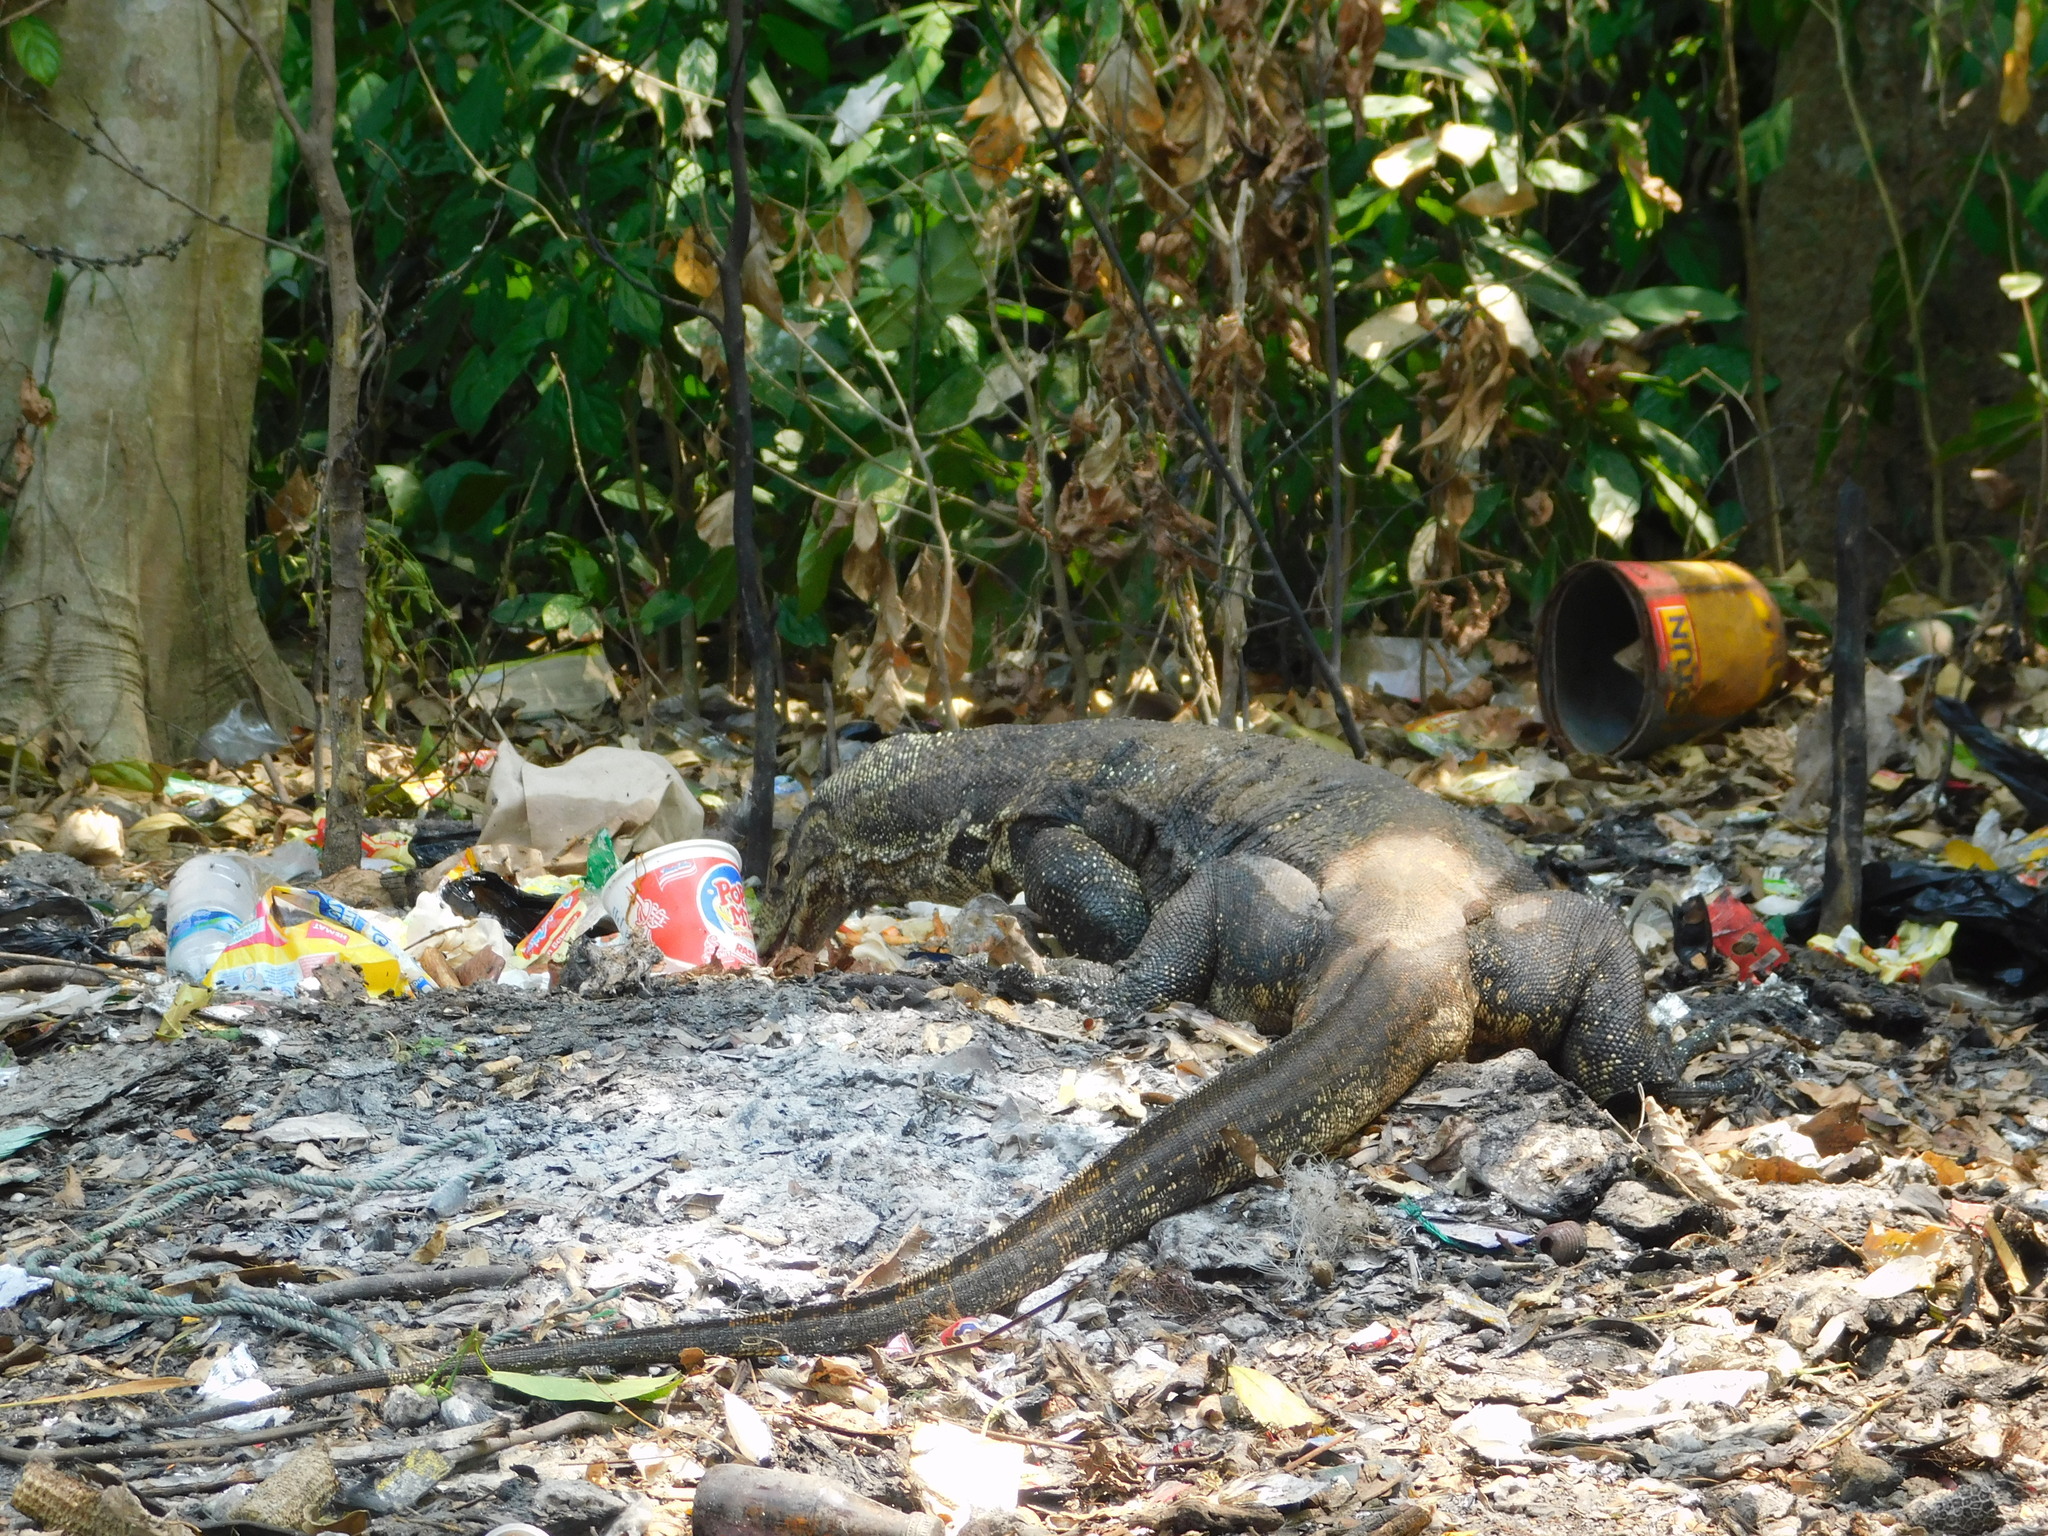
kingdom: Animalia
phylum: Chordata
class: Squamata
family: Varanidae
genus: Varanus
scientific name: Varanus salvator
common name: Common water monitor
